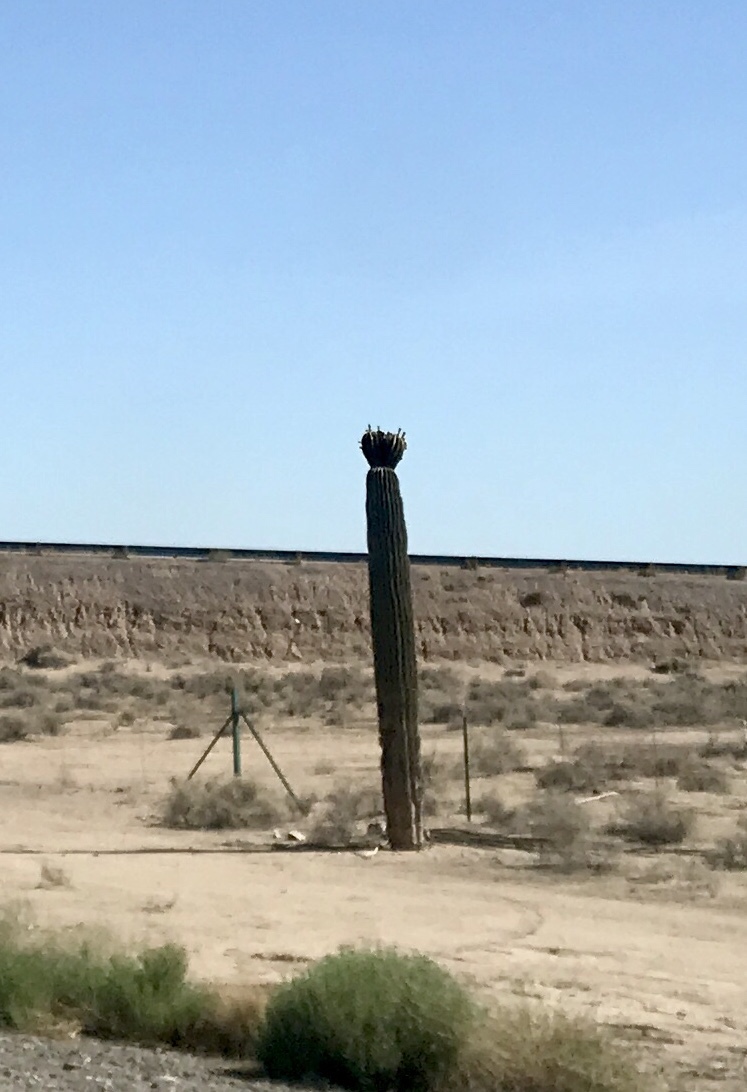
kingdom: Plantae
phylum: Tracheophyta
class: Magnoliopsida
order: Caryophyllales
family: Cactaceae
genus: Carnegiea
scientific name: Carnegiea gigantea
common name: Saguaro
